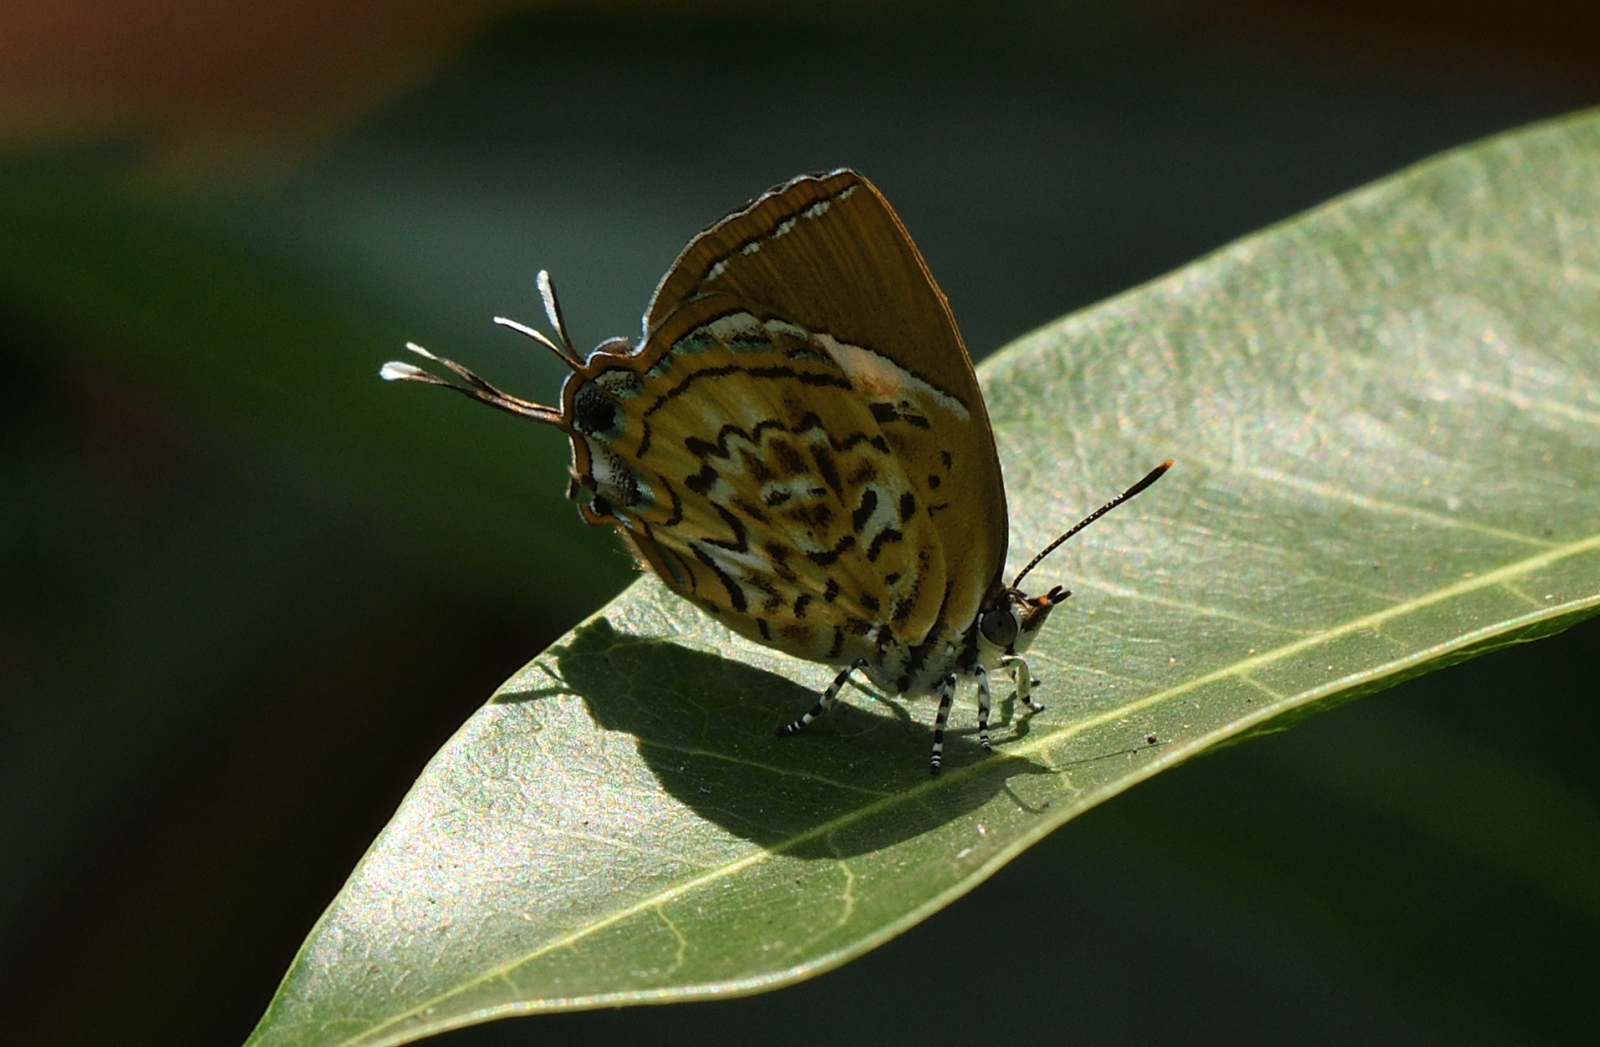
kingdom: Animalia
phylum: Arthropoda
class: Insecta
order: Lepidoptera
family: Lycaenidae
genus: Rathinda
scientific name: Rathinda amor
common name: Monkey puzzle
